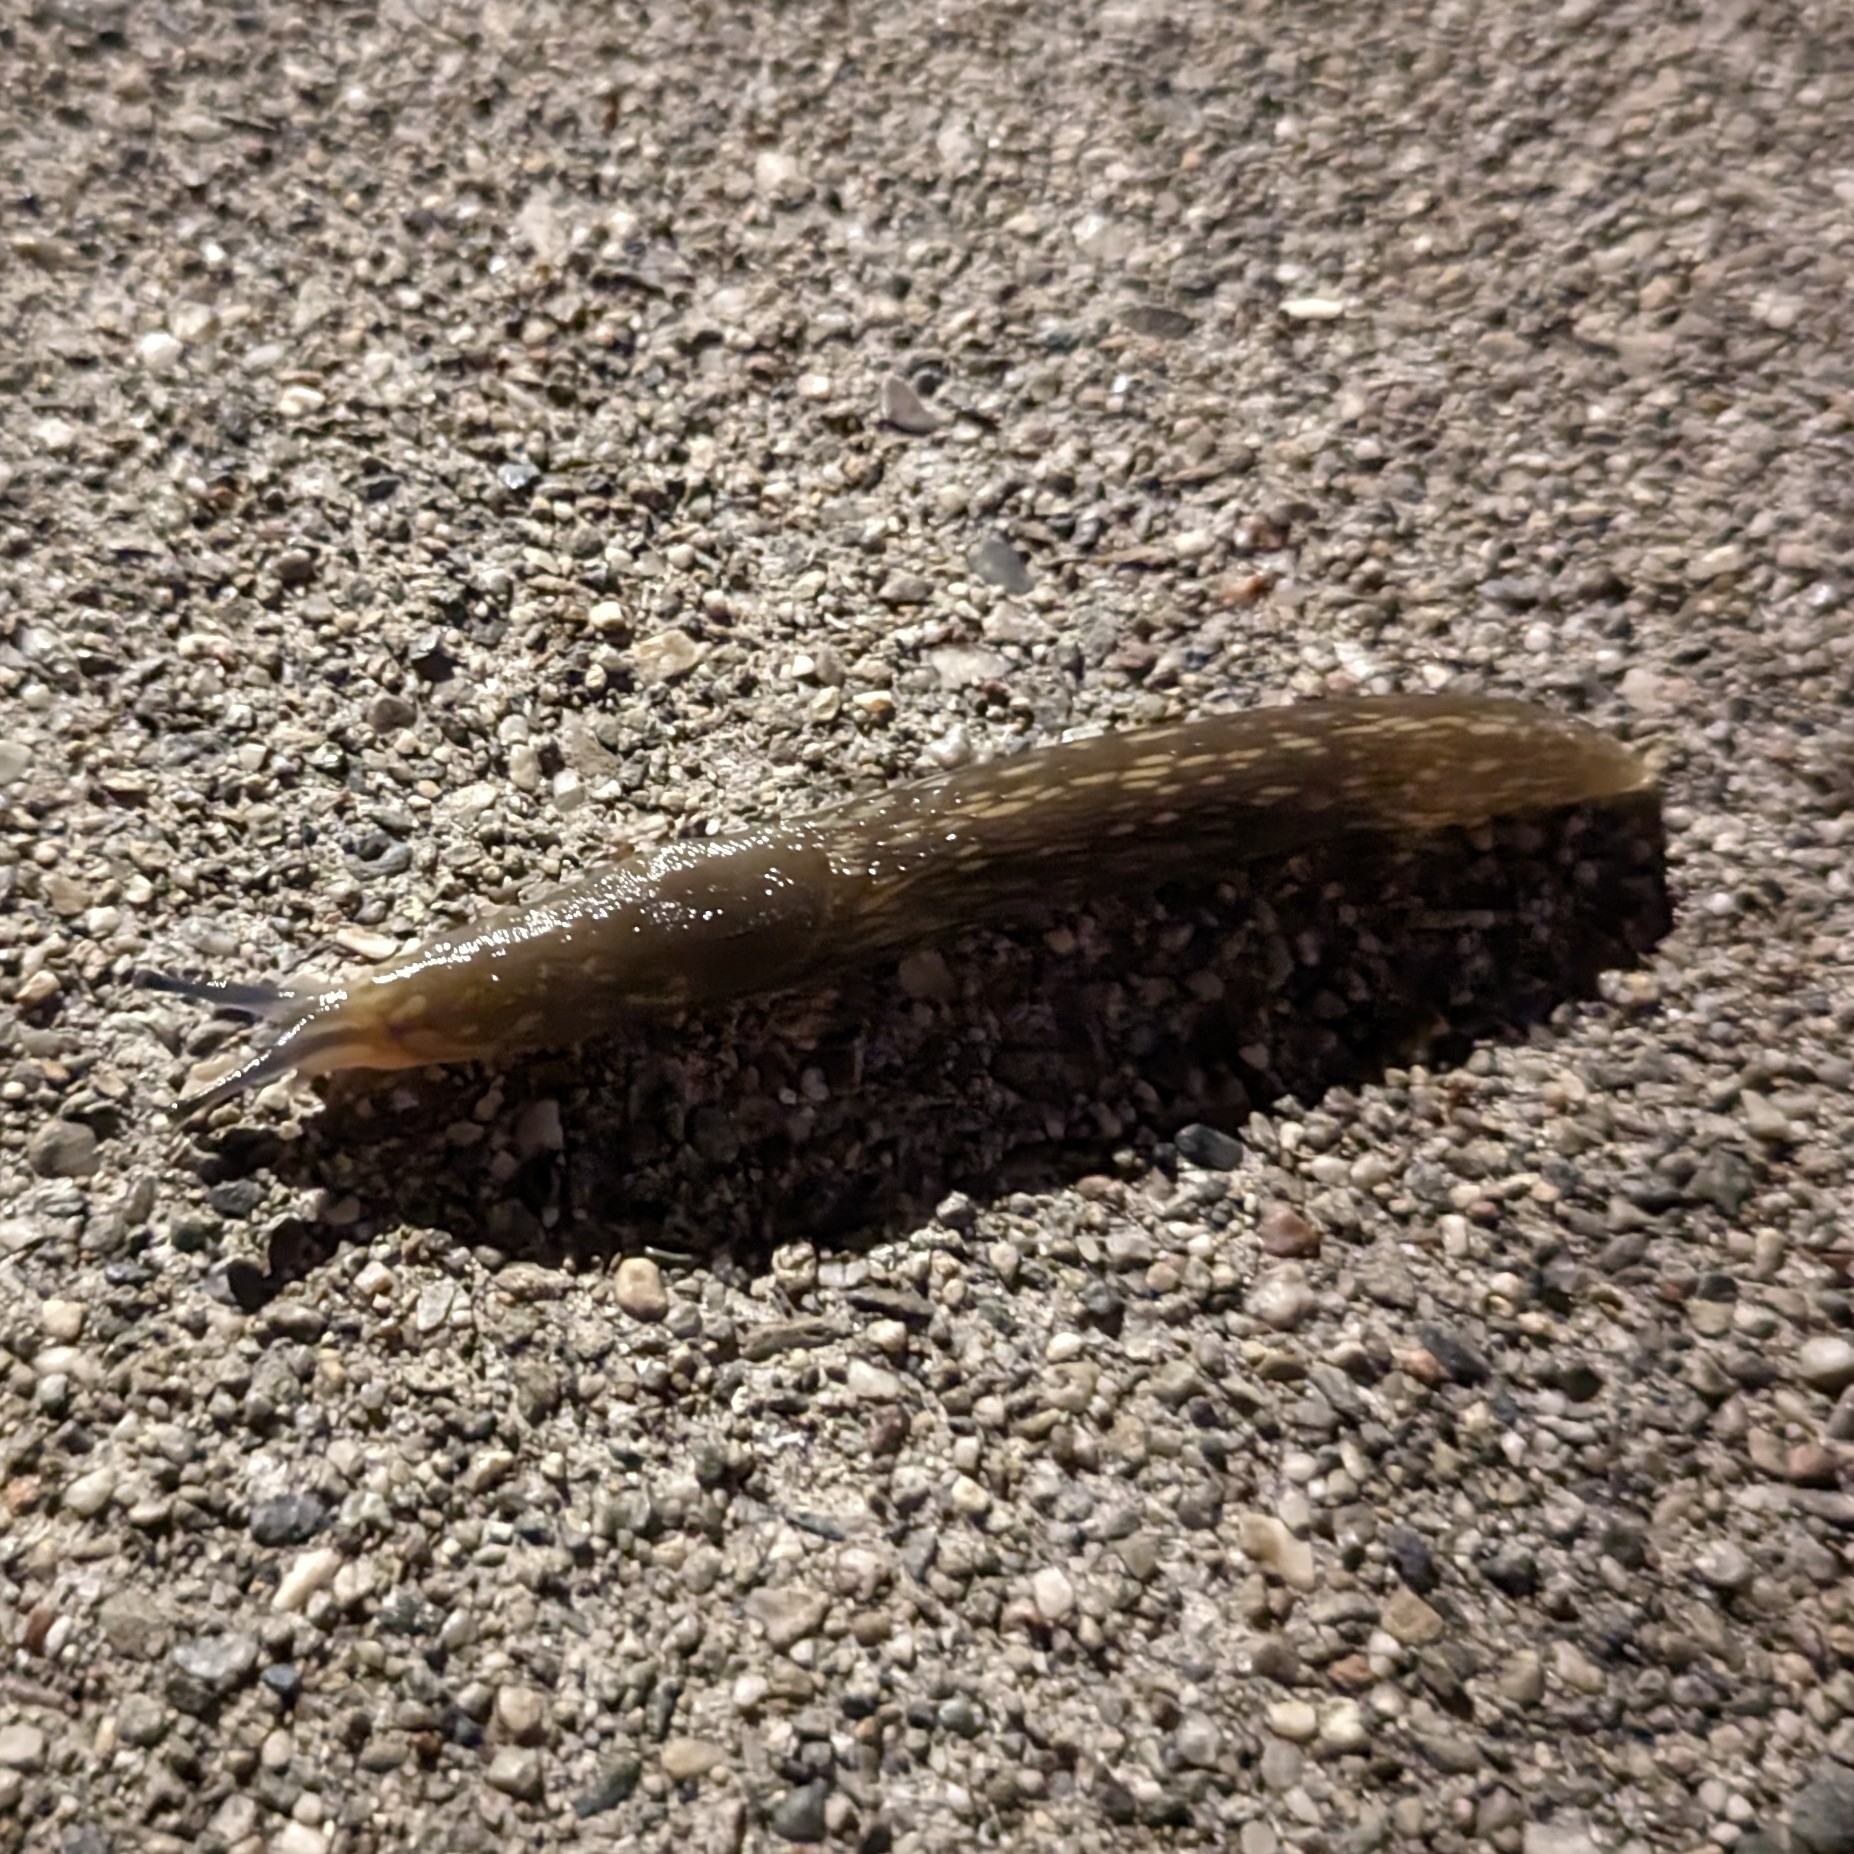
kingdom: Animalia
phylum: Mollusca
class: Gastropoda
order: Stylommatophora
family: Limacidae
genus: Limacus
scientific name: Limacus flavus
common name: Yellow gardenslug
